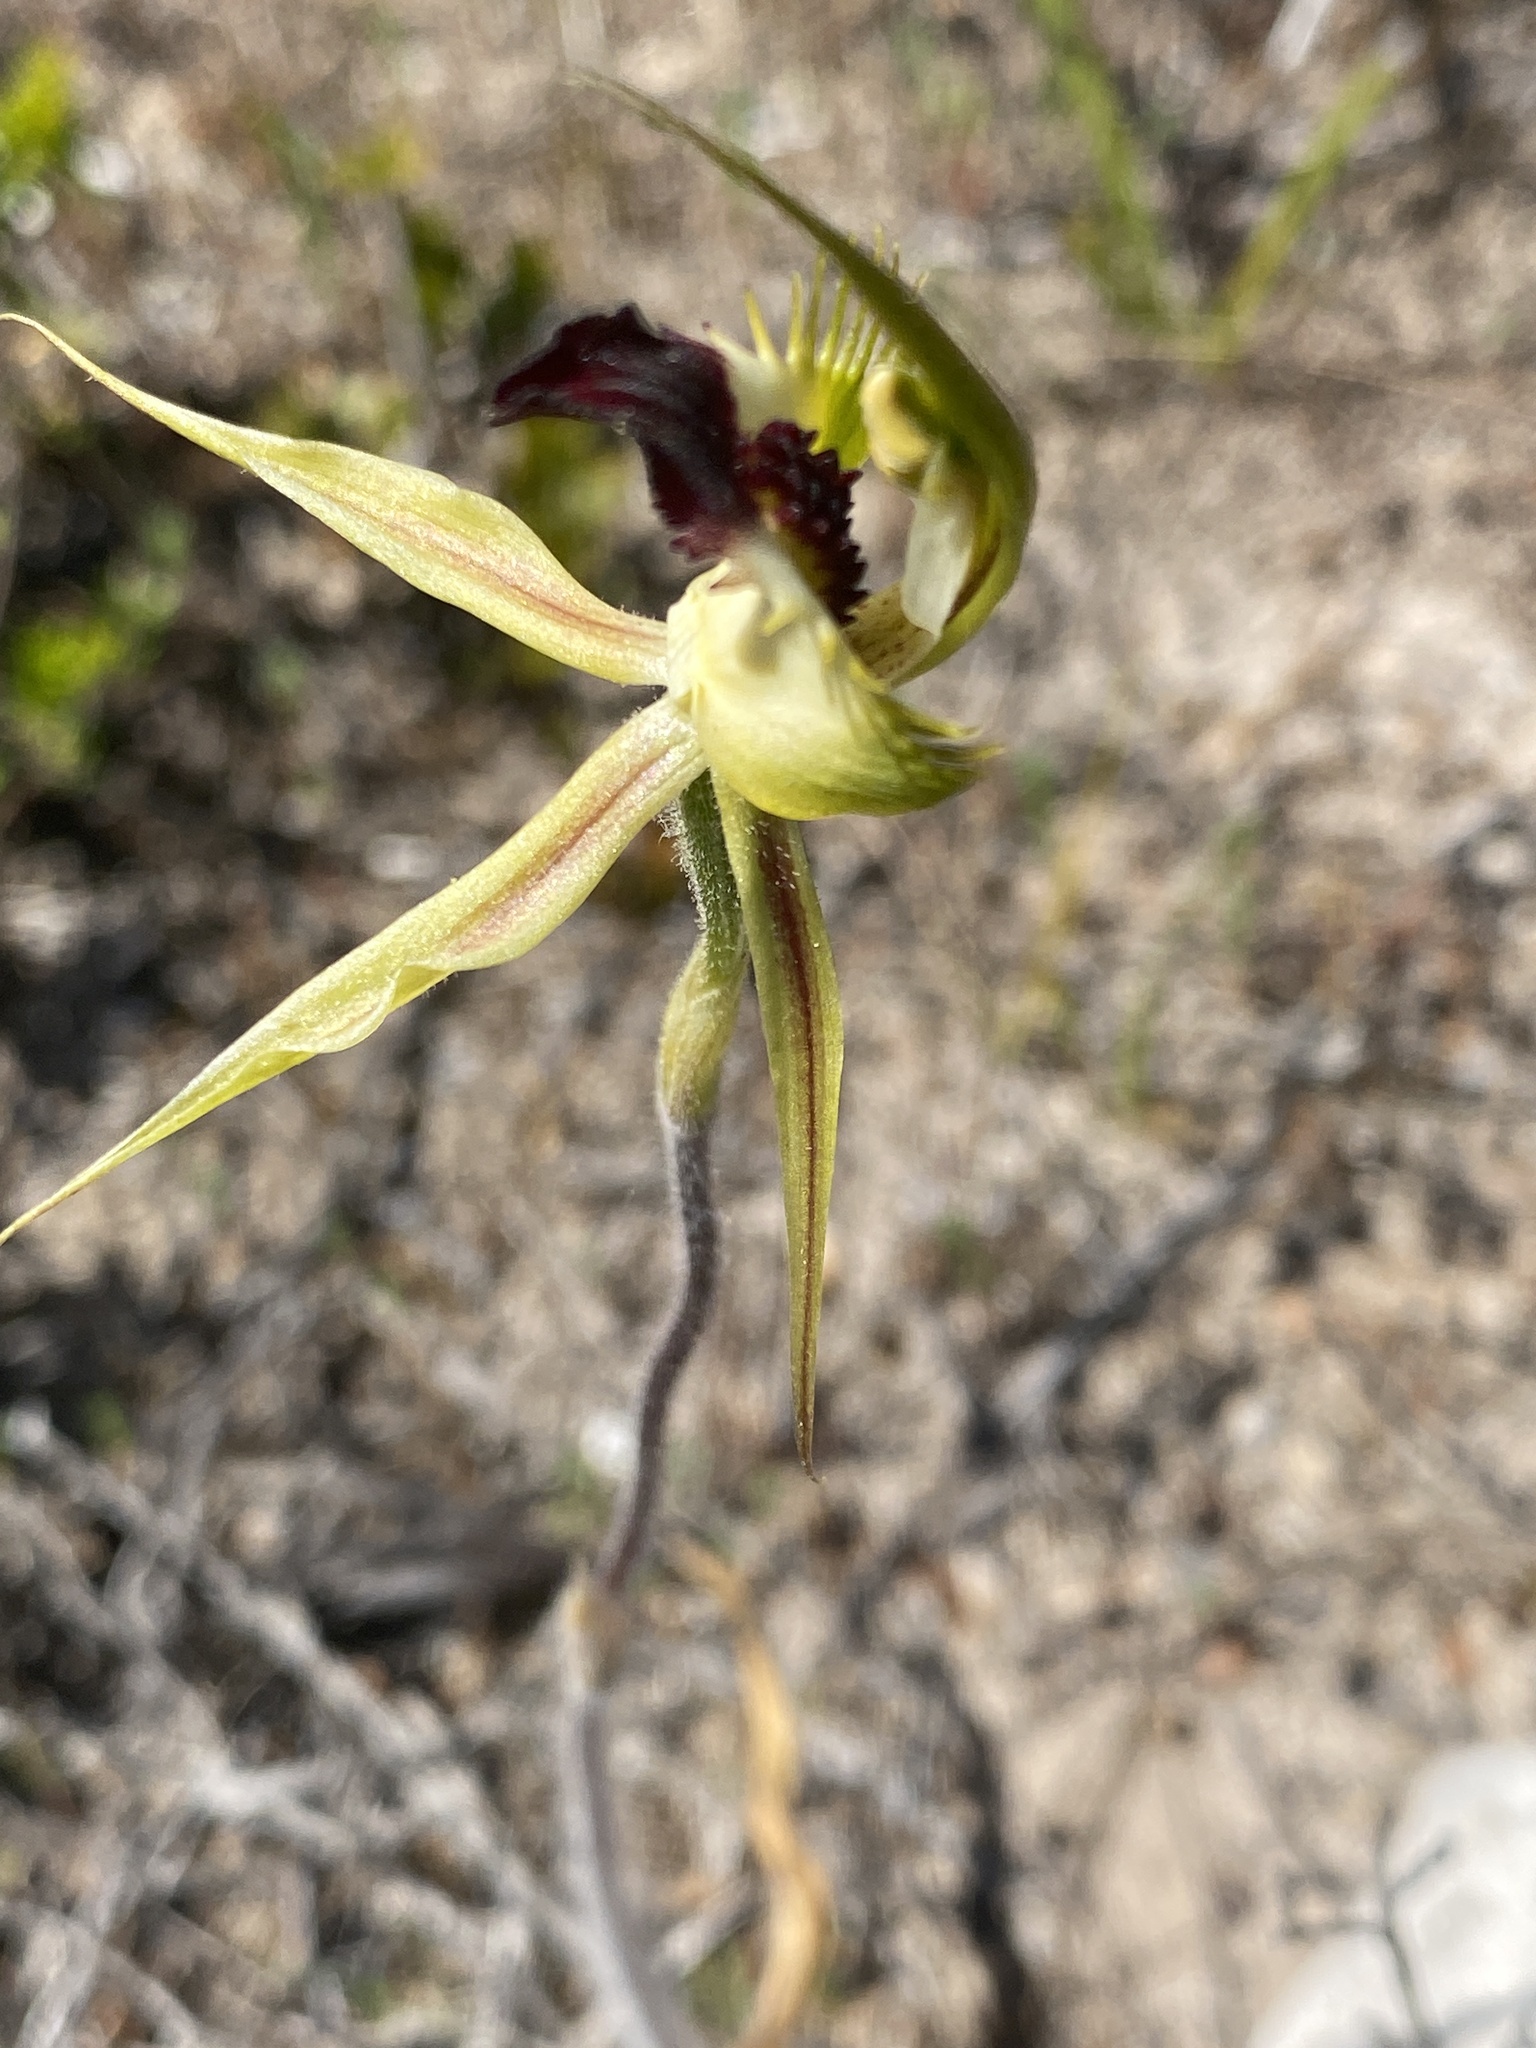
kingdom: Plantae
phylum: Tracheophyta
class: Liliopsida
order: Asparagales
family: Orchidaceae
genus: Caladenia
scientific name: Caladenia stricta
